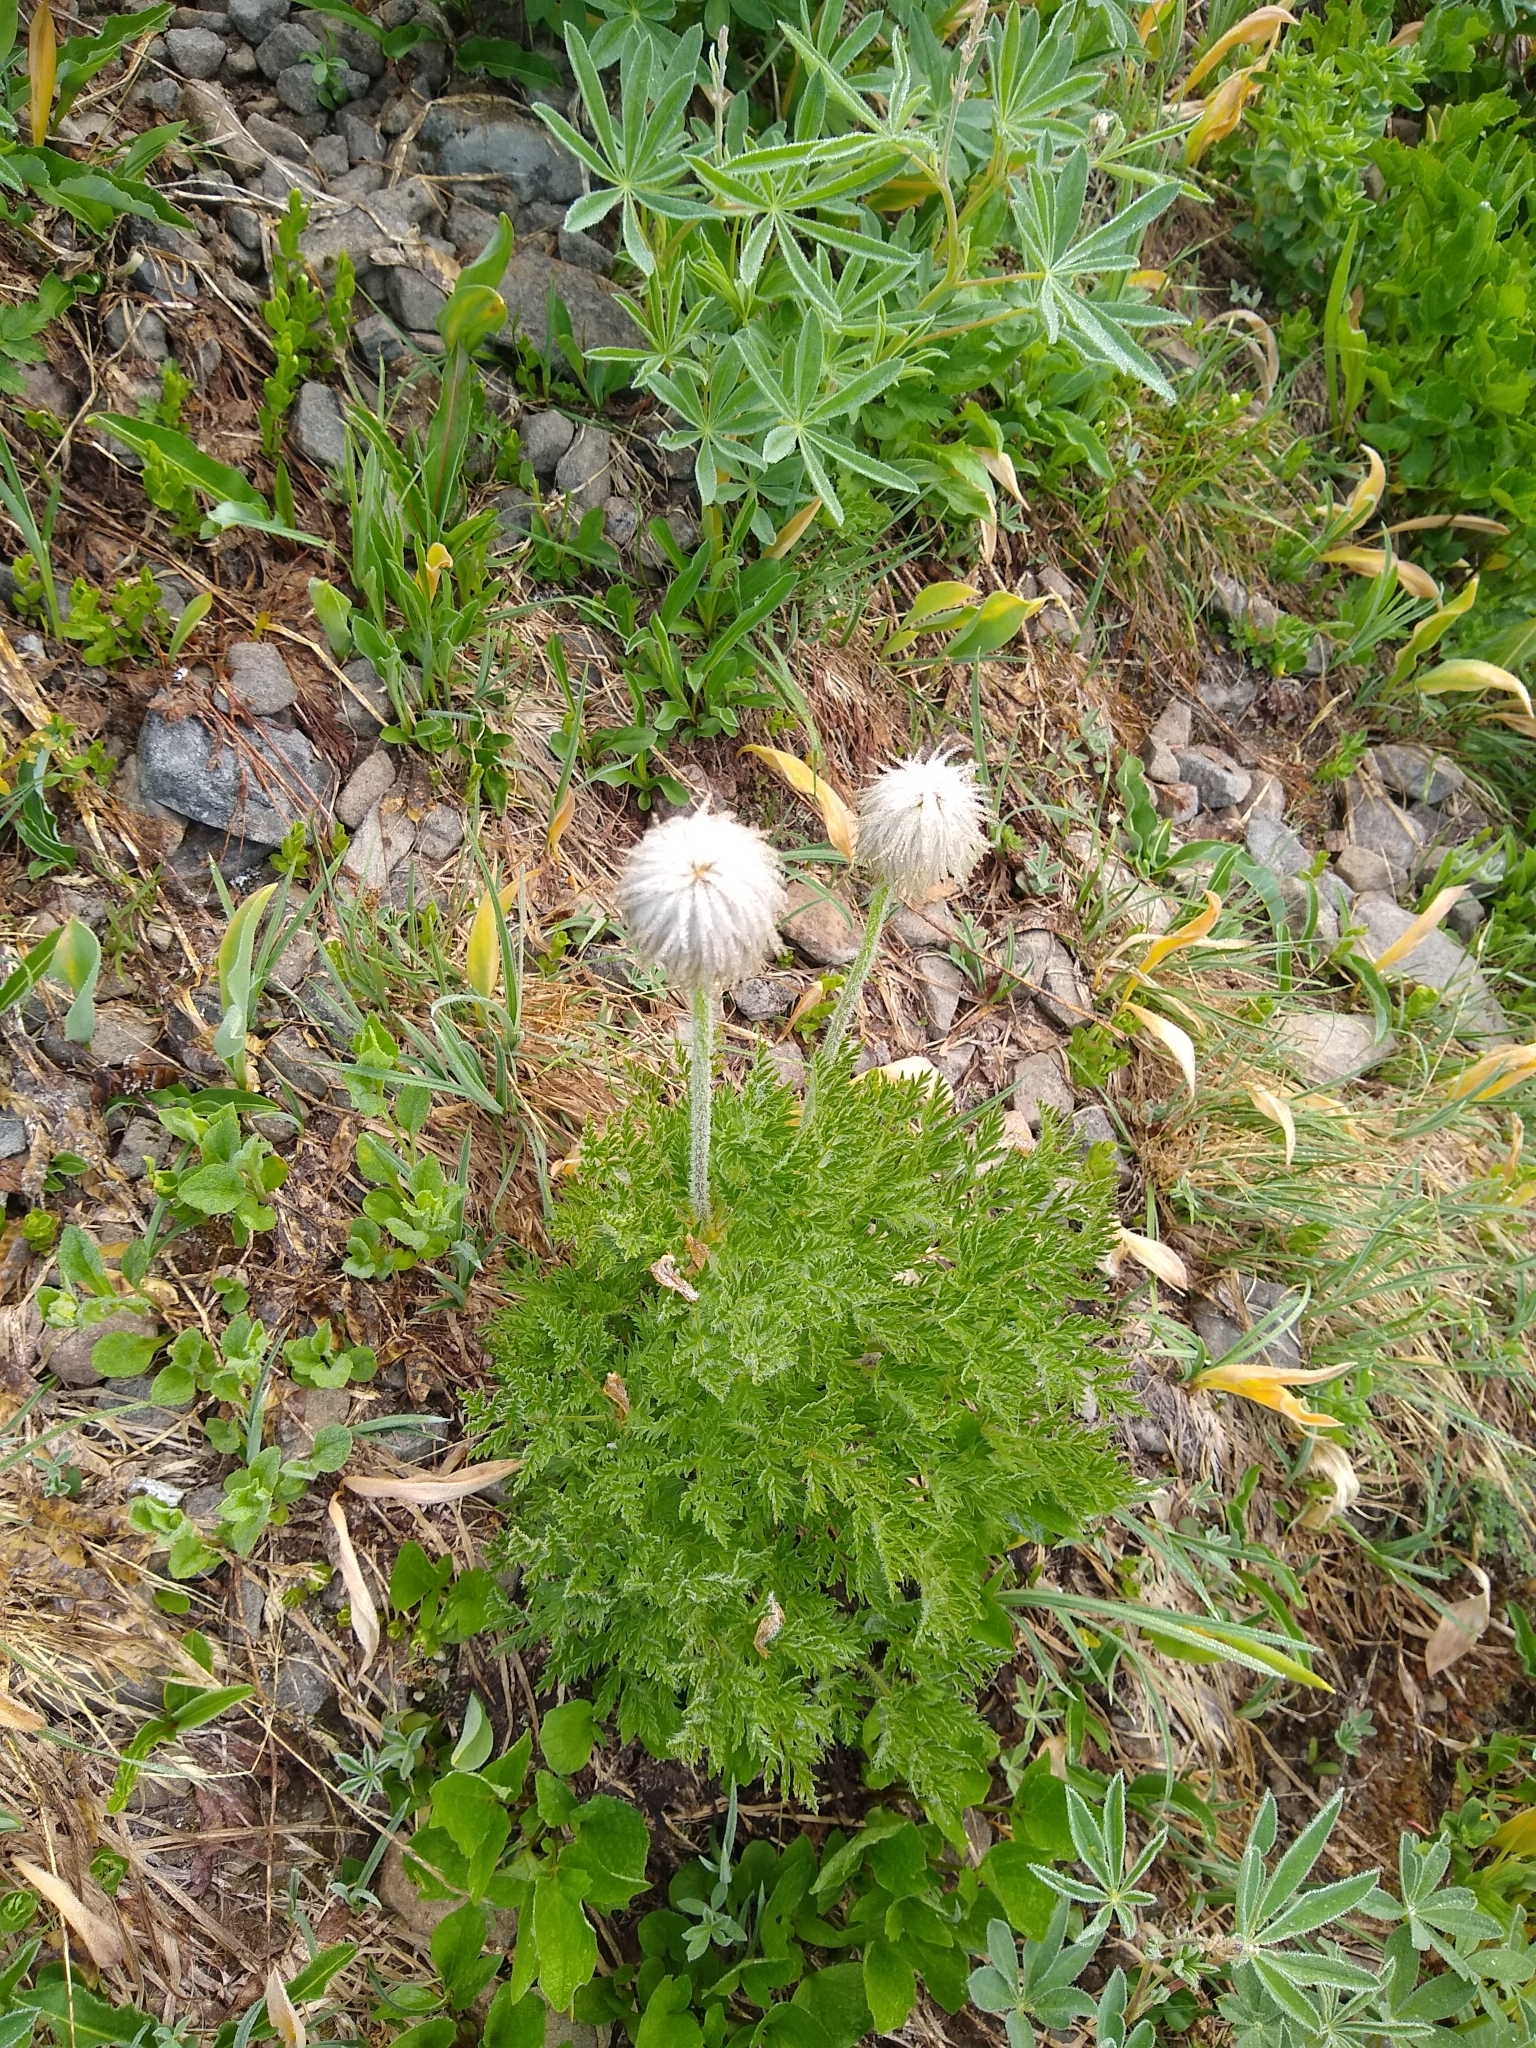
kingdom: Plantae
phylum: Tracheophyta
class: Magnoliopsida
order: Ranunculales
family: Ranunculaceae
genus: Pulsatilla
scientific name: Pulsatilla occidentalis
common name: Mountain pasqueflower
